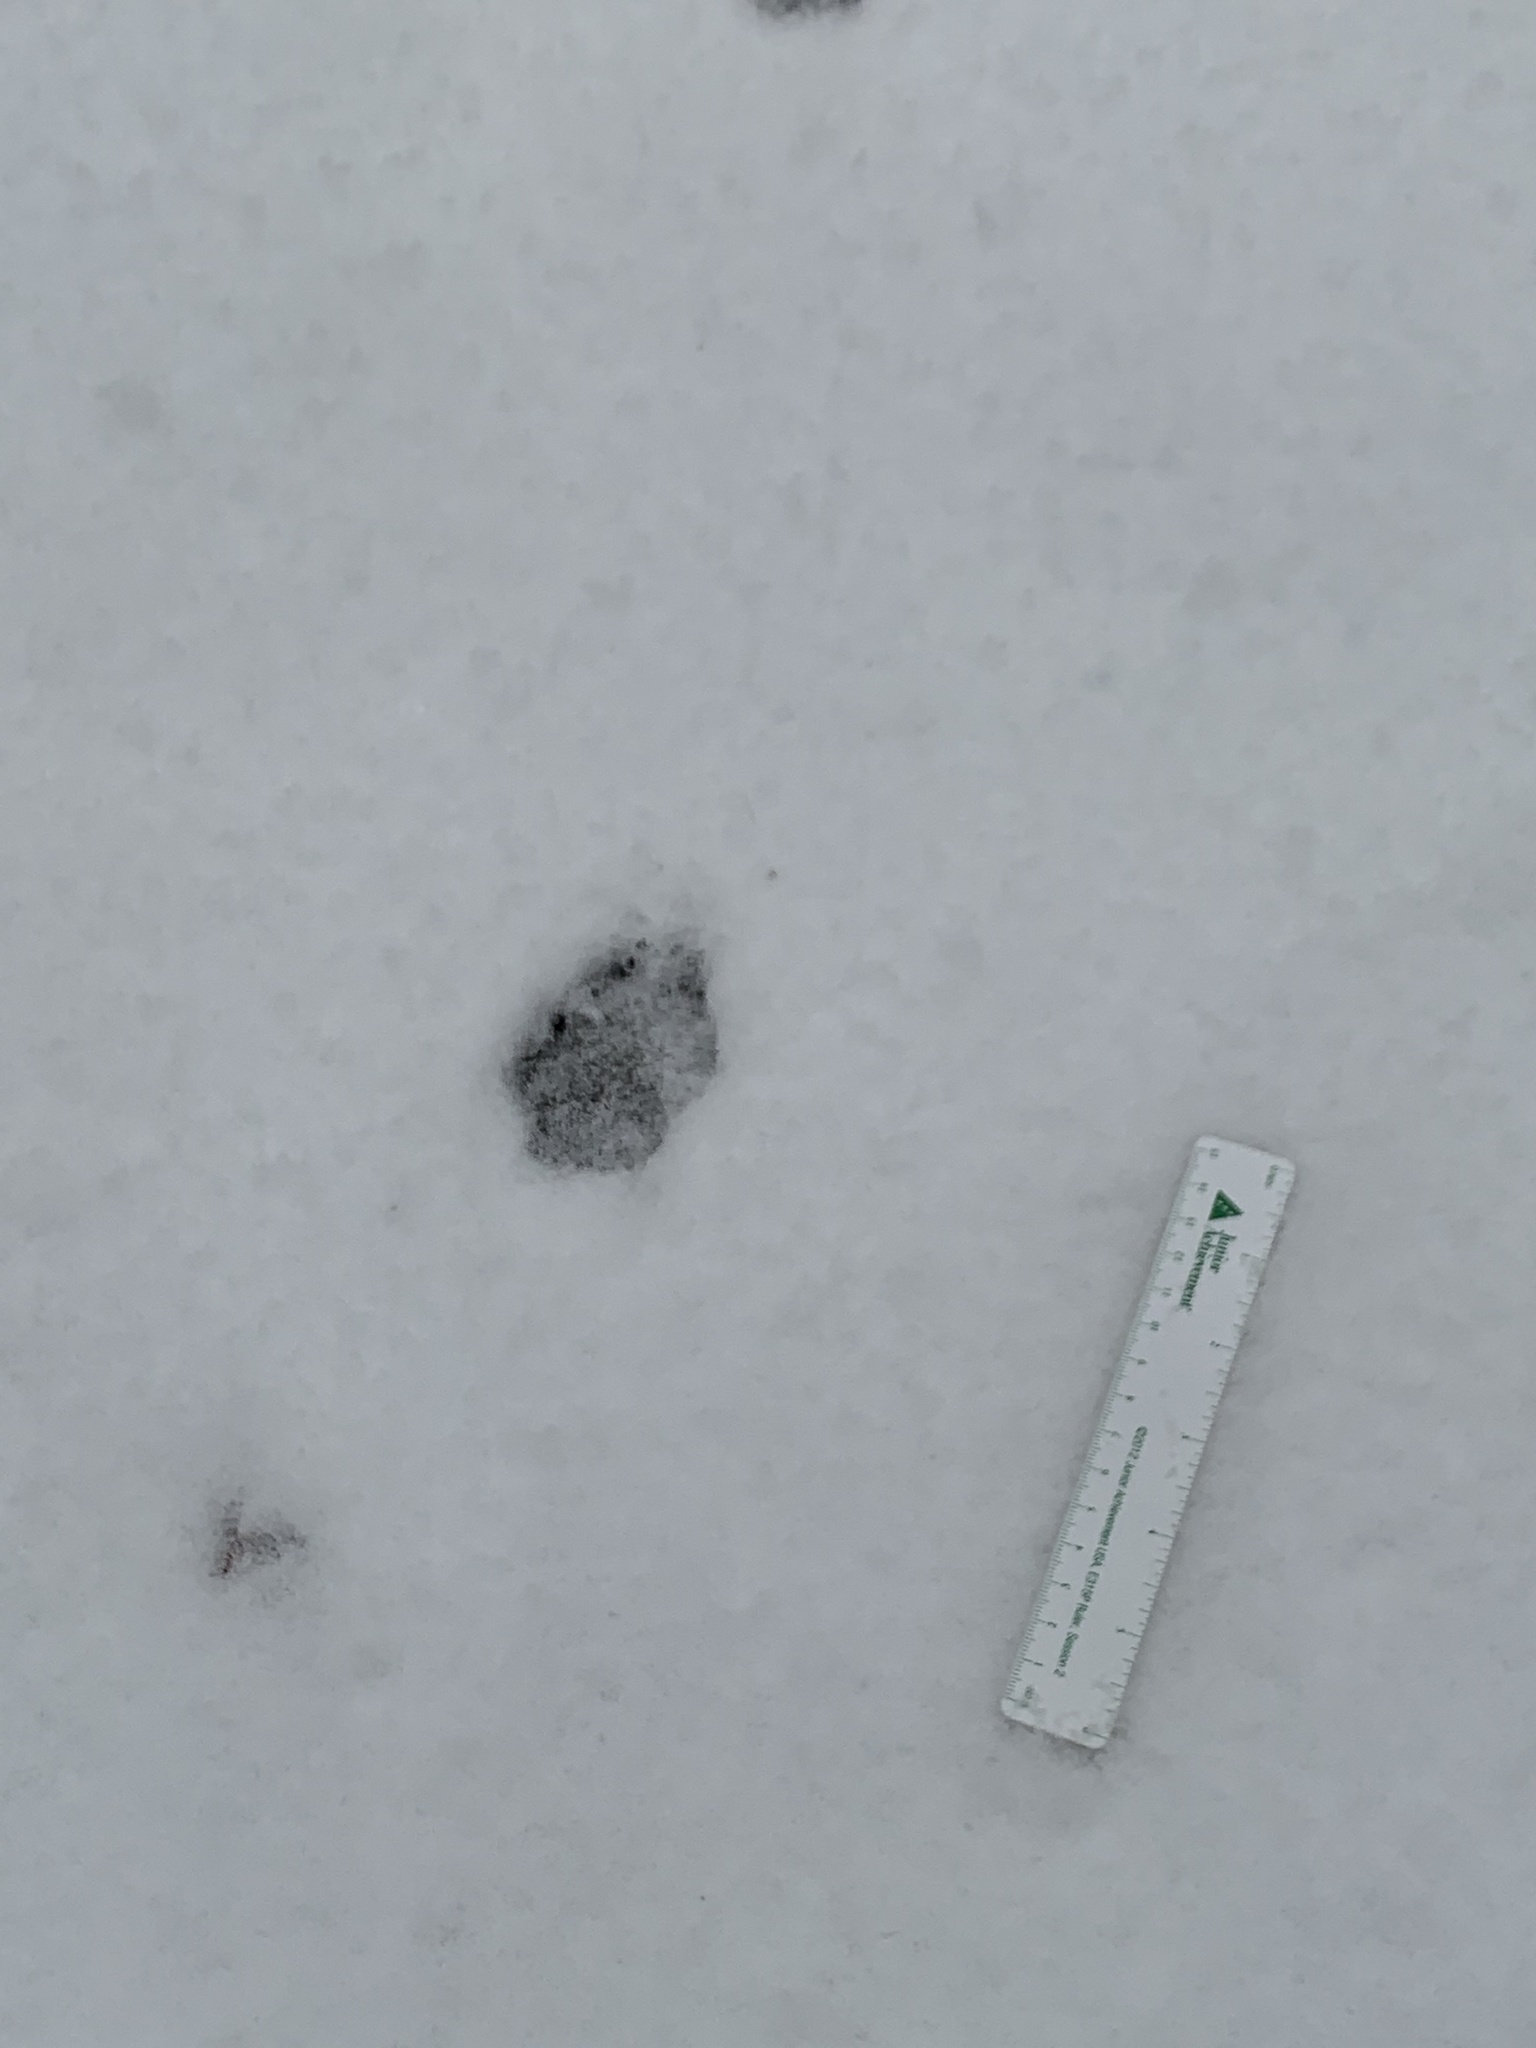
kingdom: Animalia
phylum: Chordata
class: Mammalia
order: Carnivora
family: Canidae
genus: Vulpes
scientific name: Vulpes vulpes
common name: Red fox
